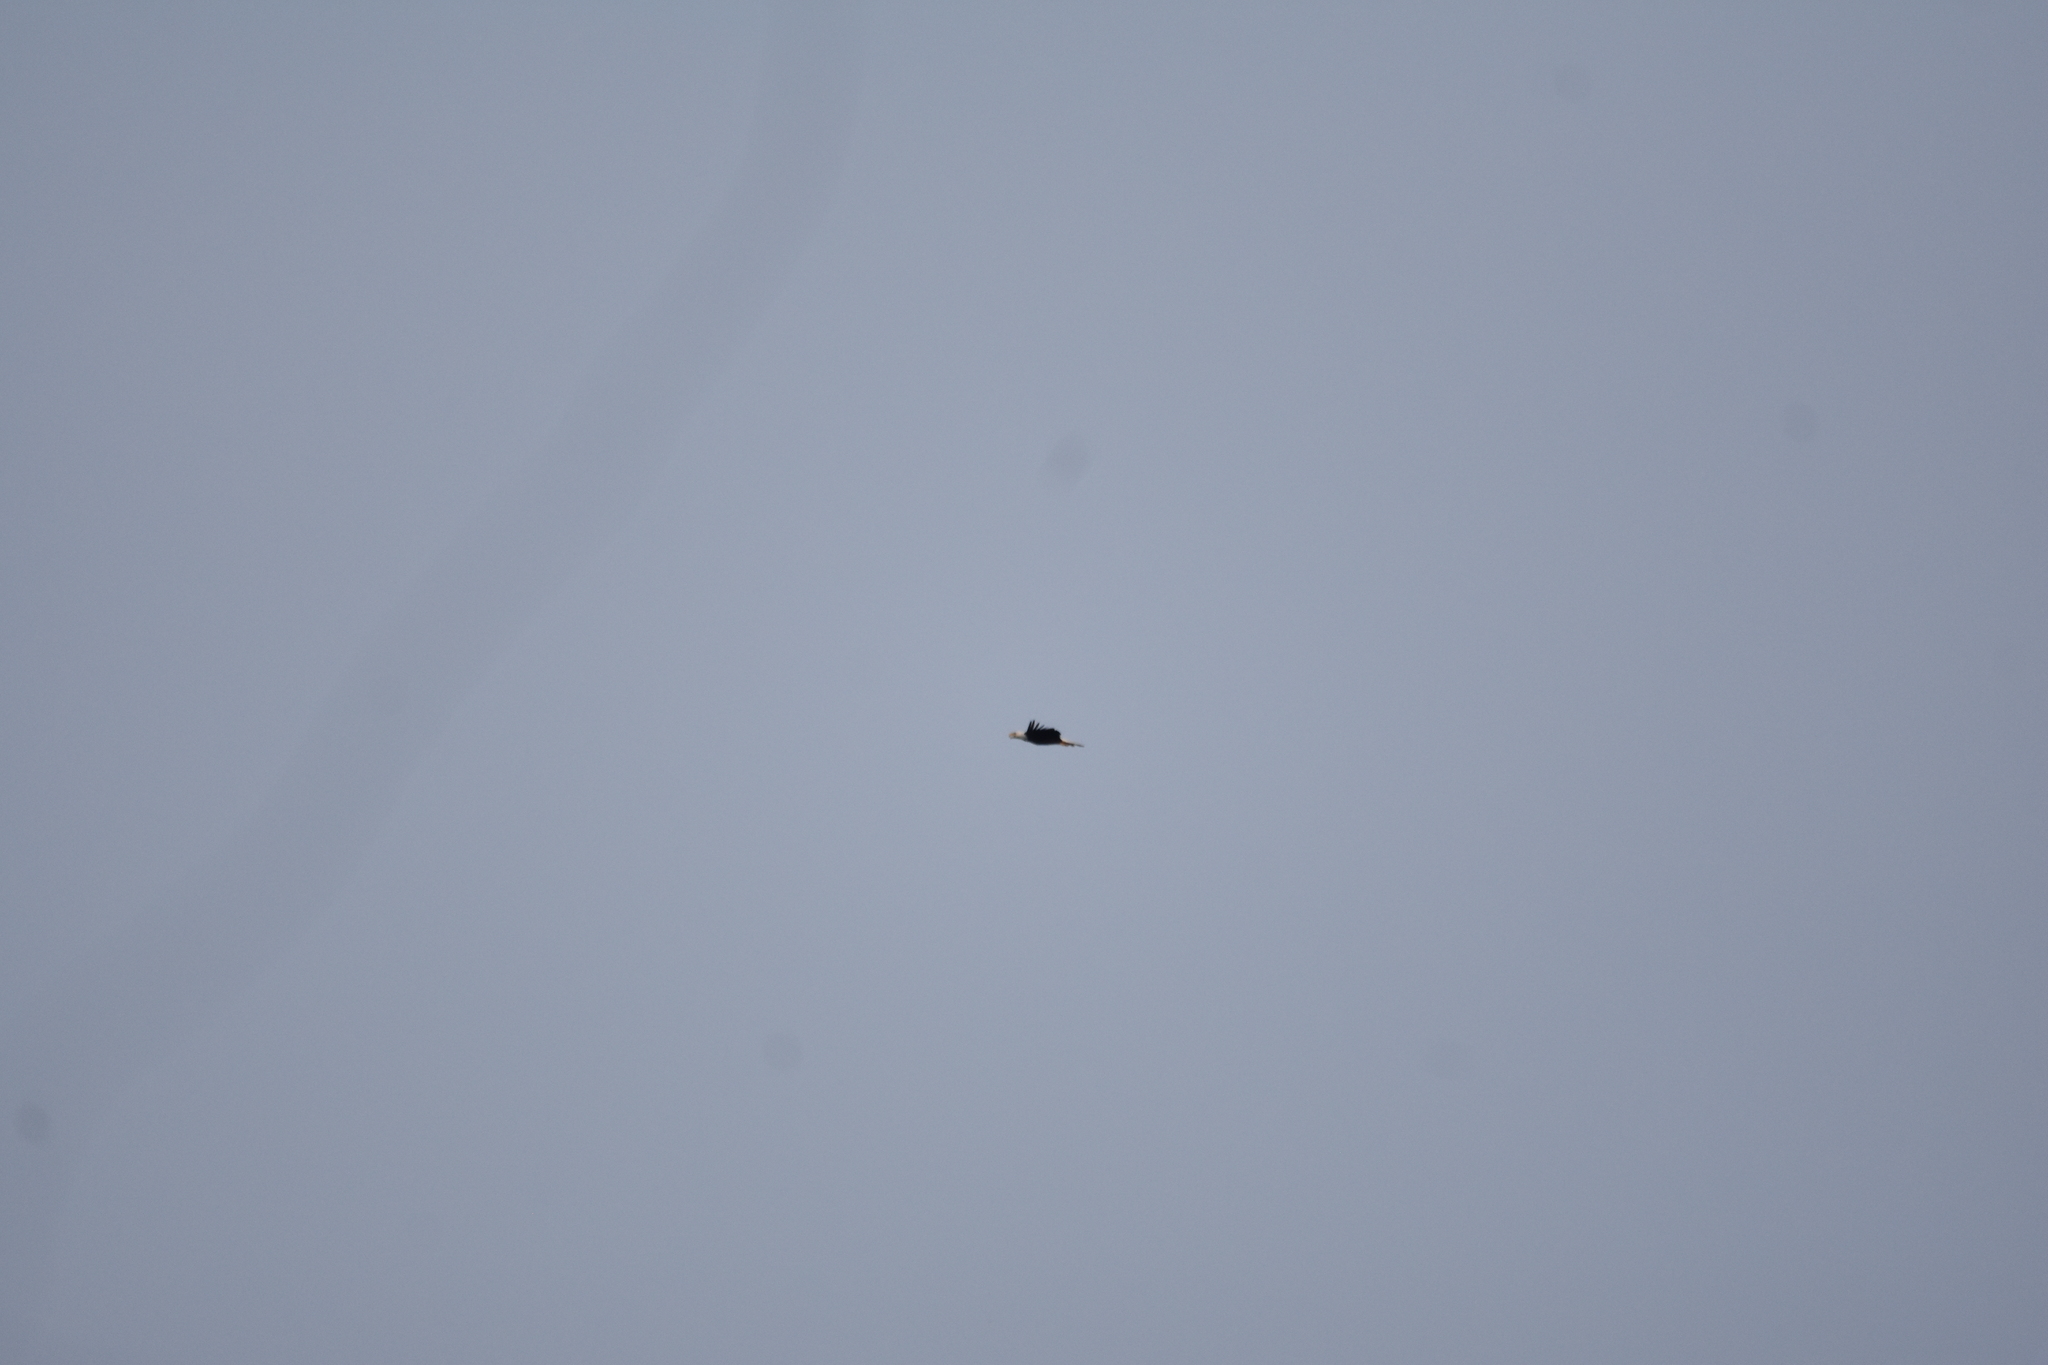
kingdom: Animalia
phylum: Chordata
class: Aves
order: Accipitriformes
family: Accipitridae
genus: Haliaeetus
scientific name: Haliaeetus leucocephalus
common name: Bald eagle
